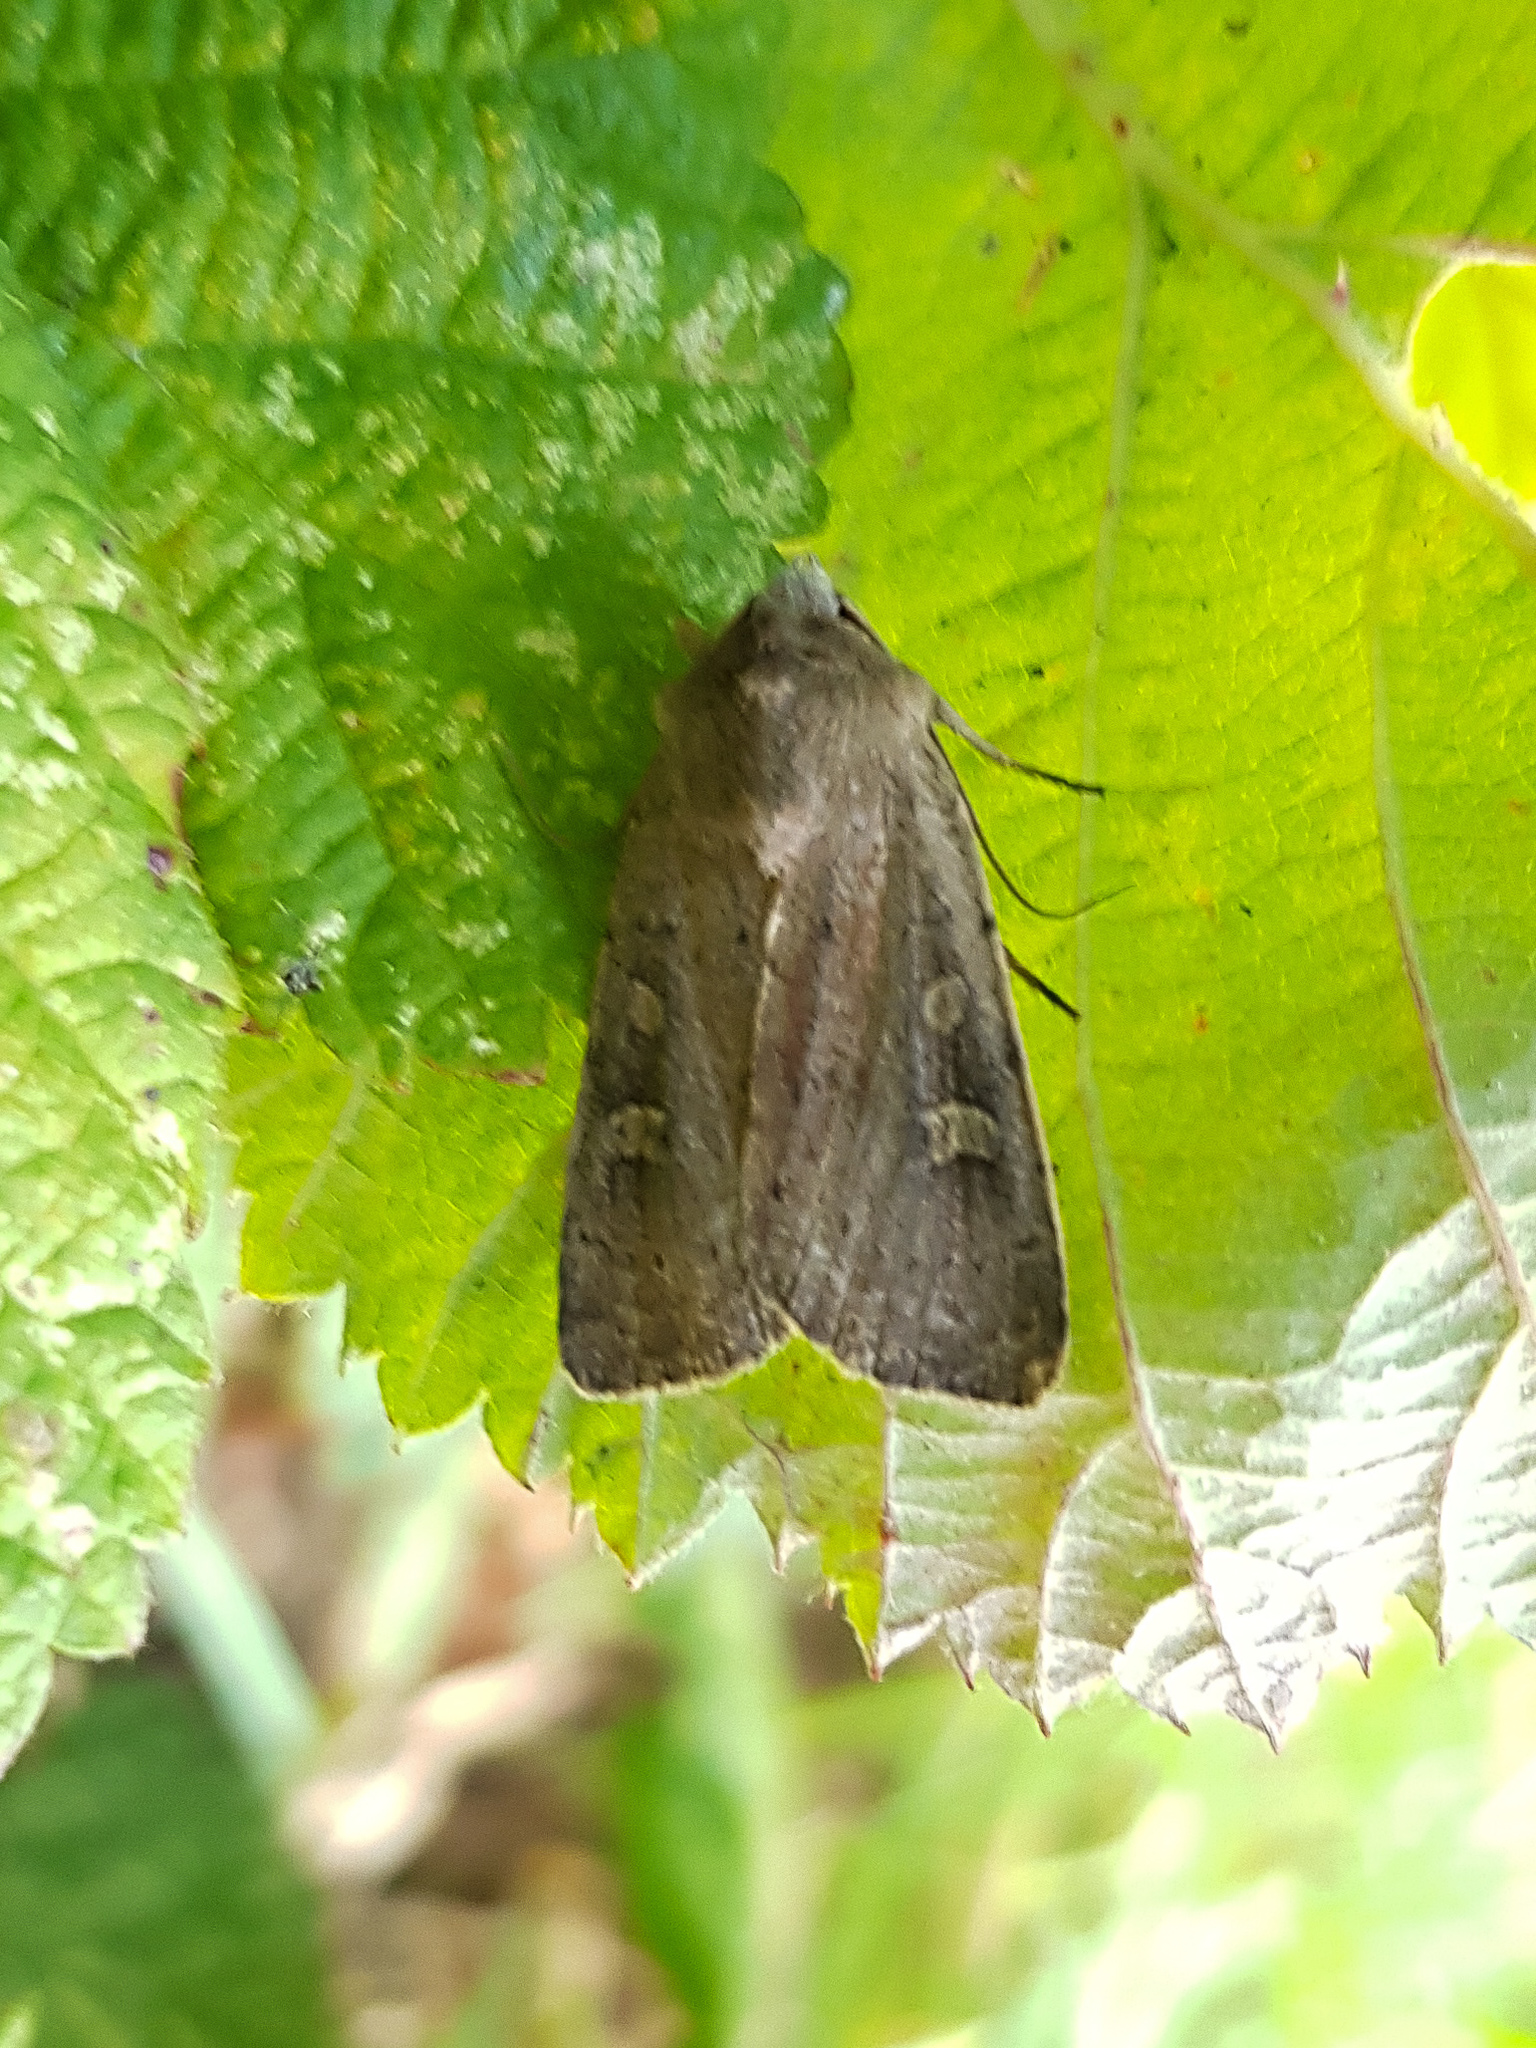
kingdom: Animalia
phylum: Arthropoda
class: Insecta
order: Lepidoptera
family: Noctuidae
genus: Xestia
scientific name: Xestia xanthographa
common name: Square-spot rustic
